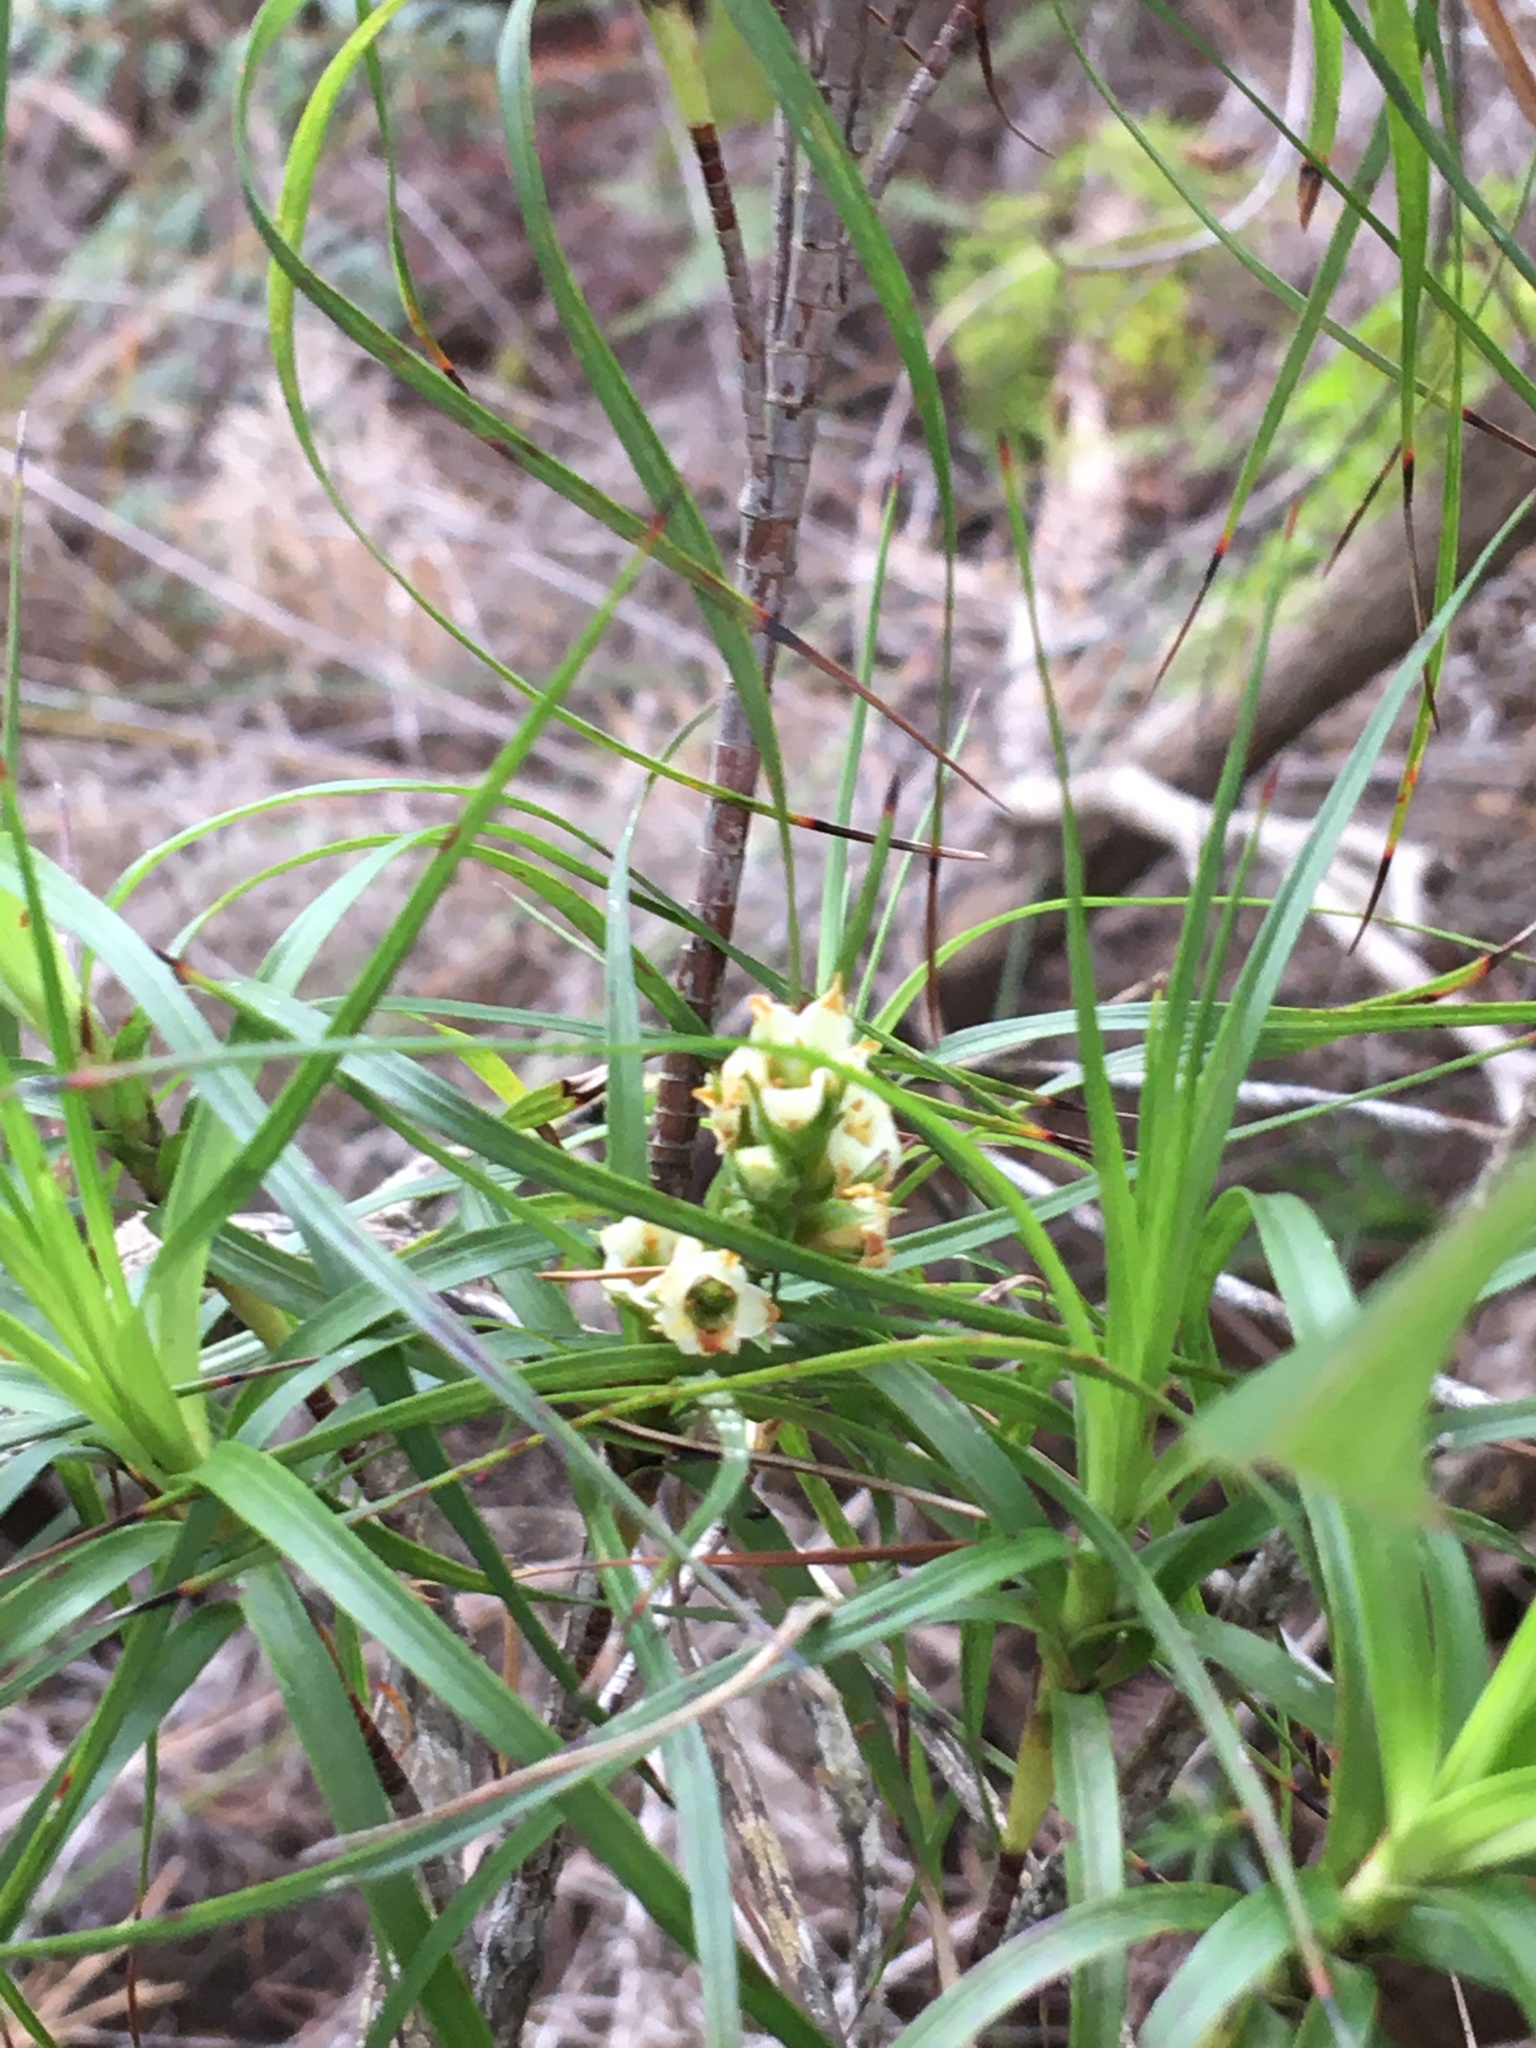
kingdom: Plantae
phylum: Tracheophyta
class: Magnoliopsida
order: Ericales
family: Ericaceae
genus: Dracophyllum
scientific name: Dracophyllum sinclairii
